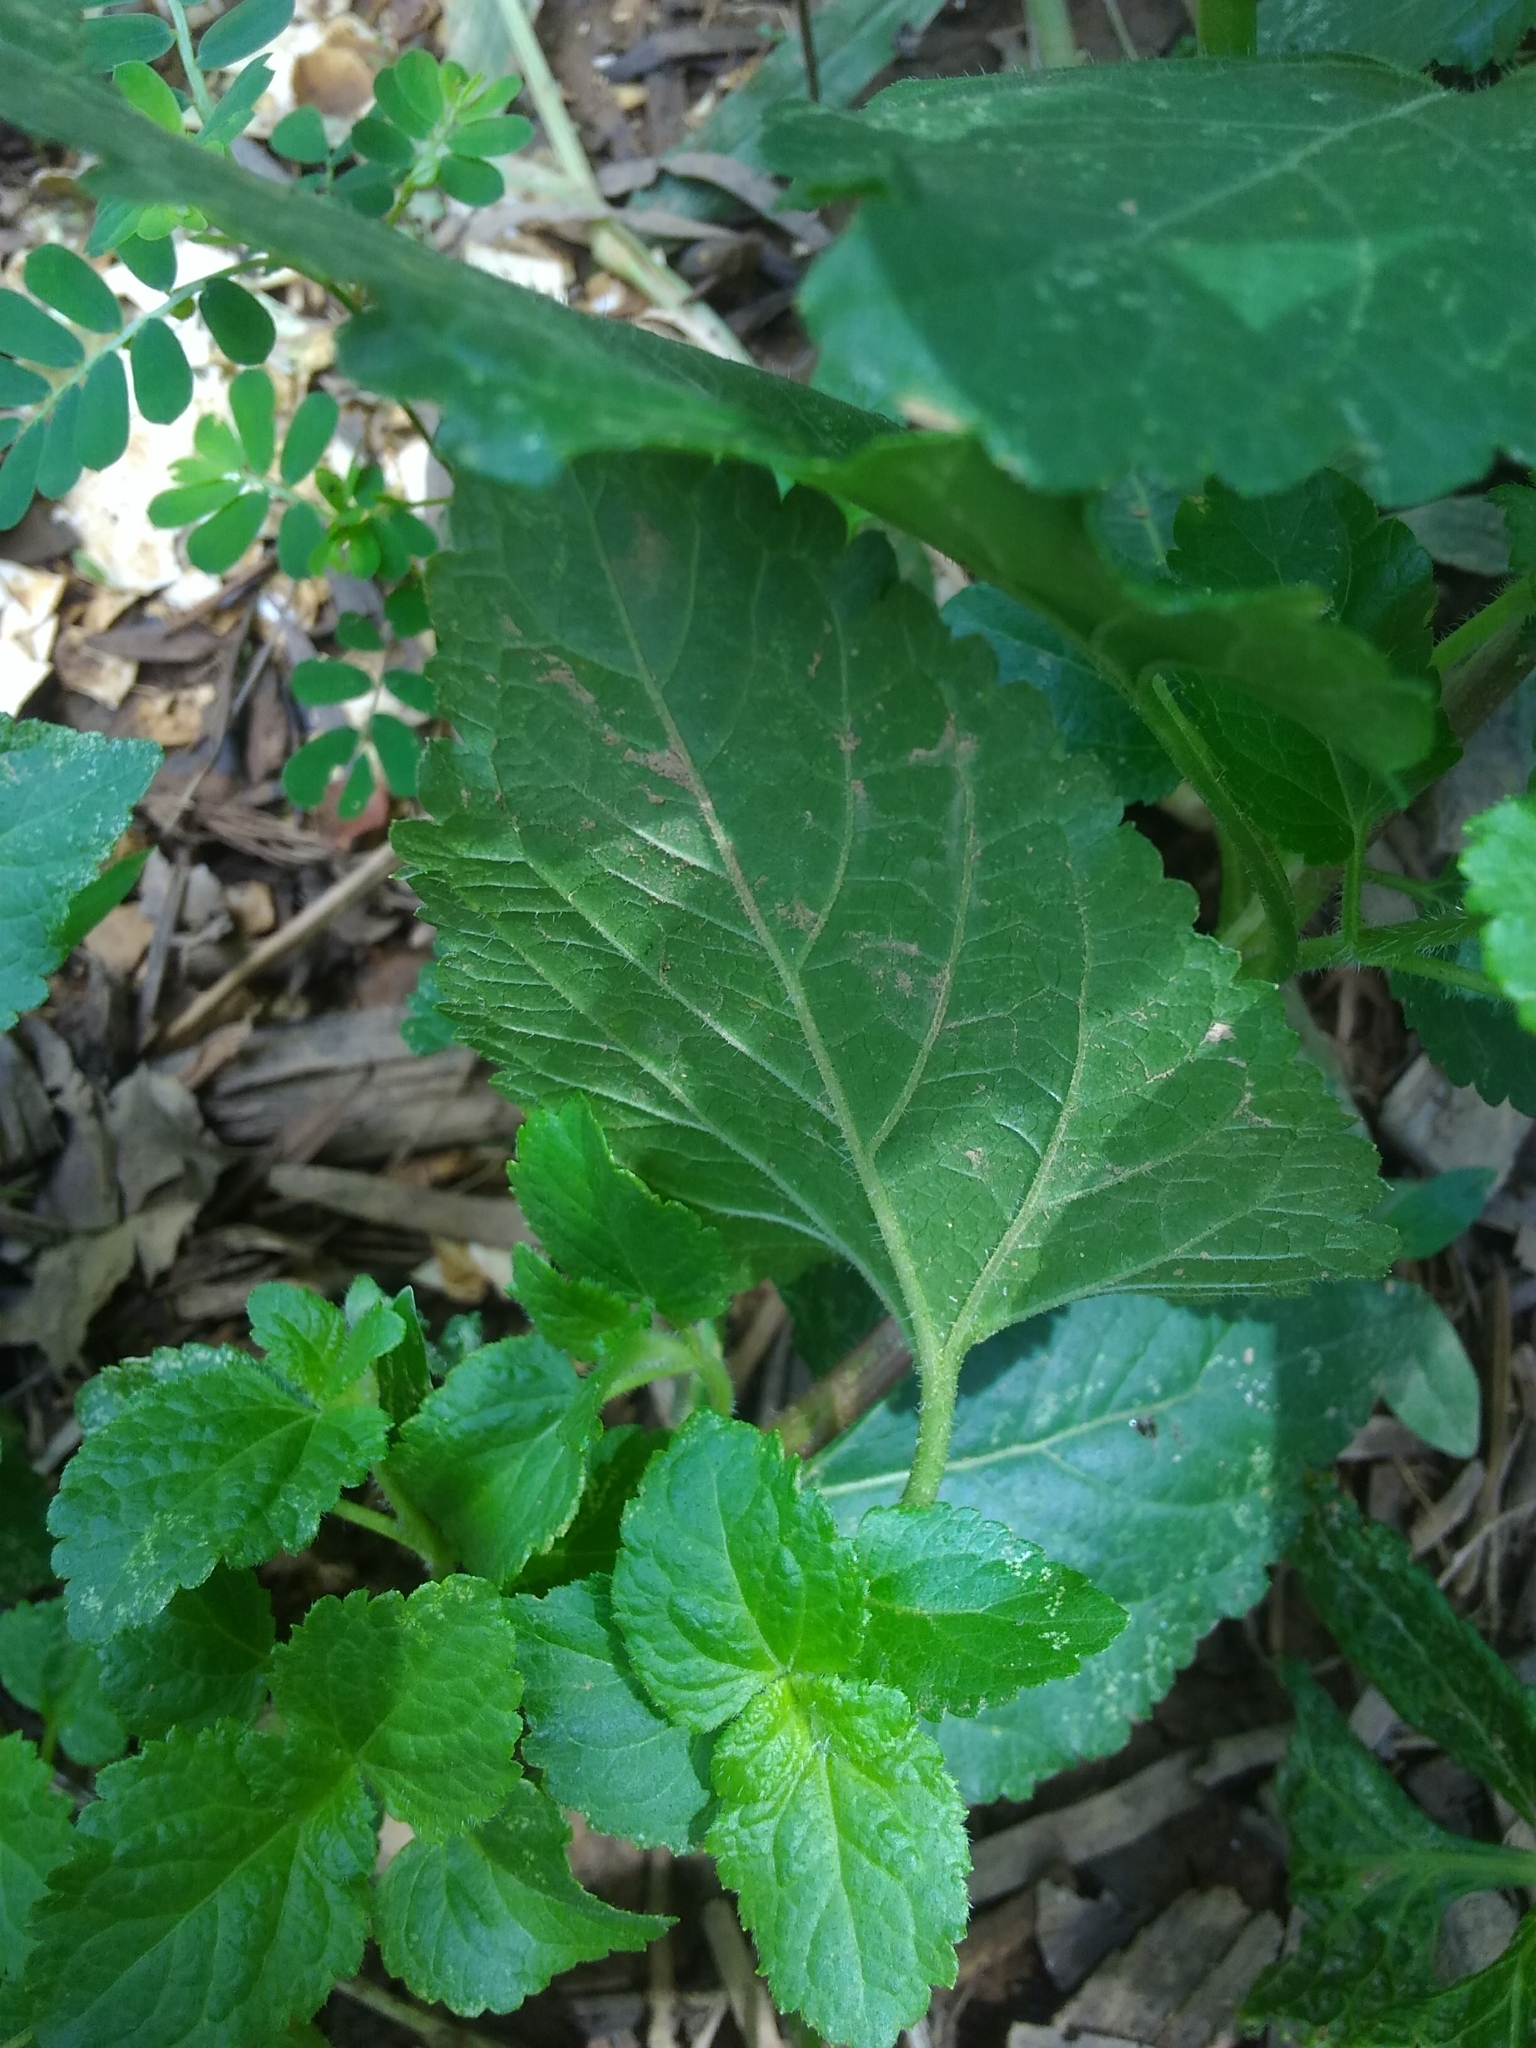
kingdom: Plantae
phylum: Tracheophyta
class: Magnoliopsida
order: Asterales
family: Asteraceae
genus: Ageratum
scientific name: Ageratum houstonianum
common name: Bluemink
